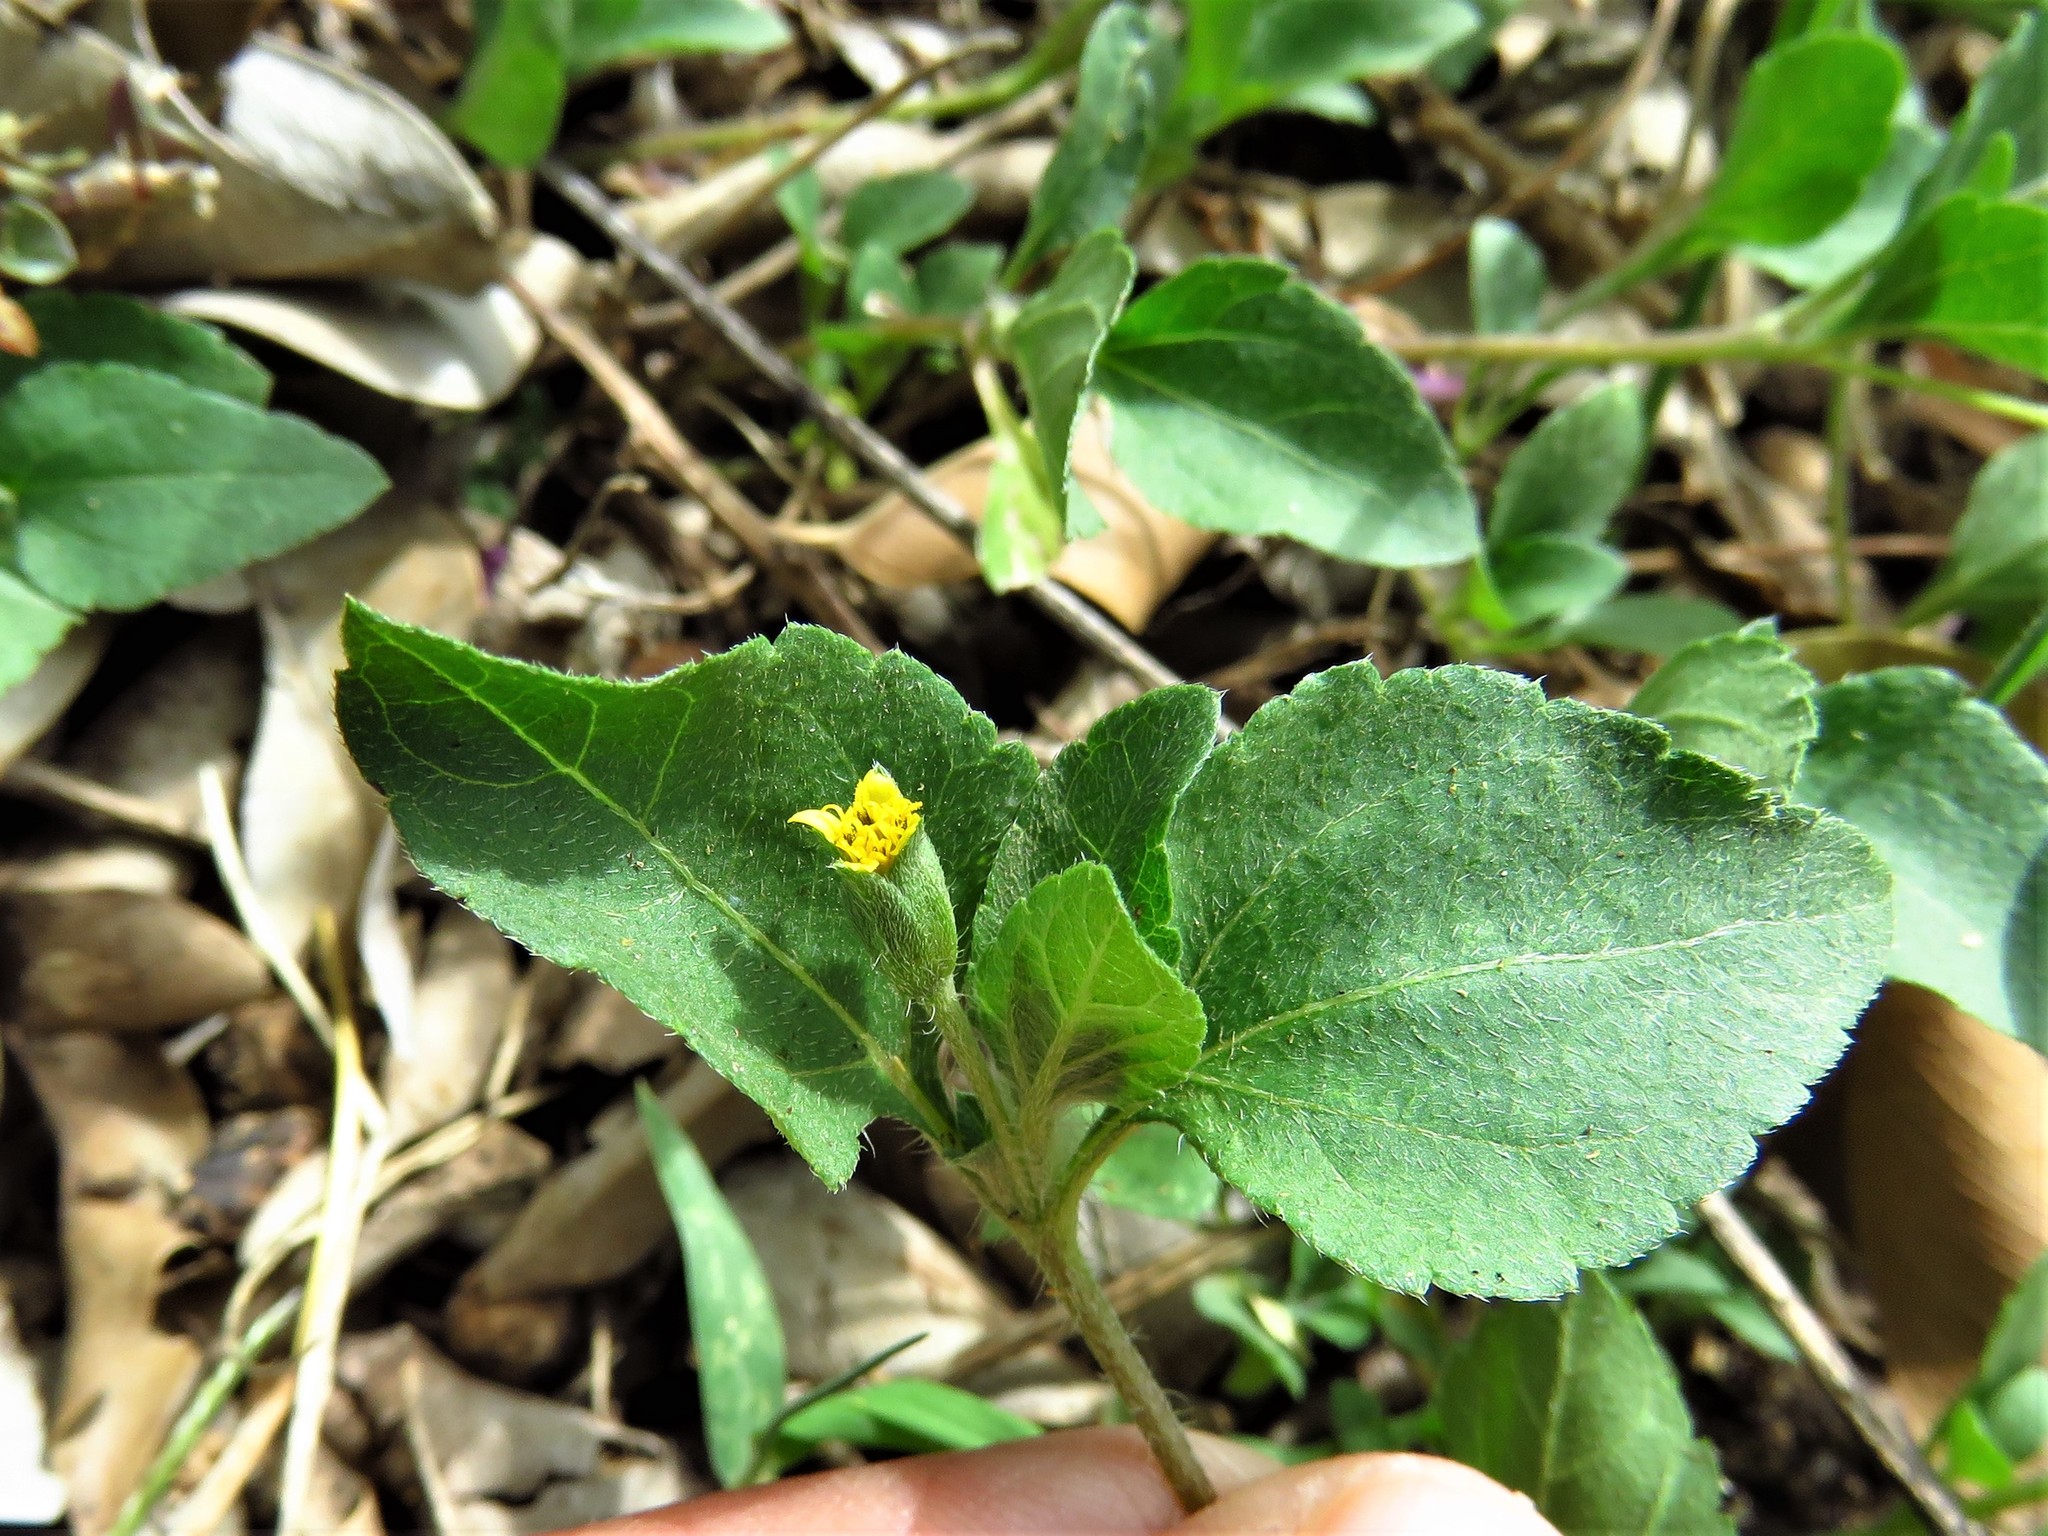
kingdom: Plantae
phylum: Tracheophyta
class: Magnoliopsida
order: Asterales
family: Asteraceae
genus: Calyptocarpus
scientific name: Calyptocarpus vialis
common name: Straggler daisy
